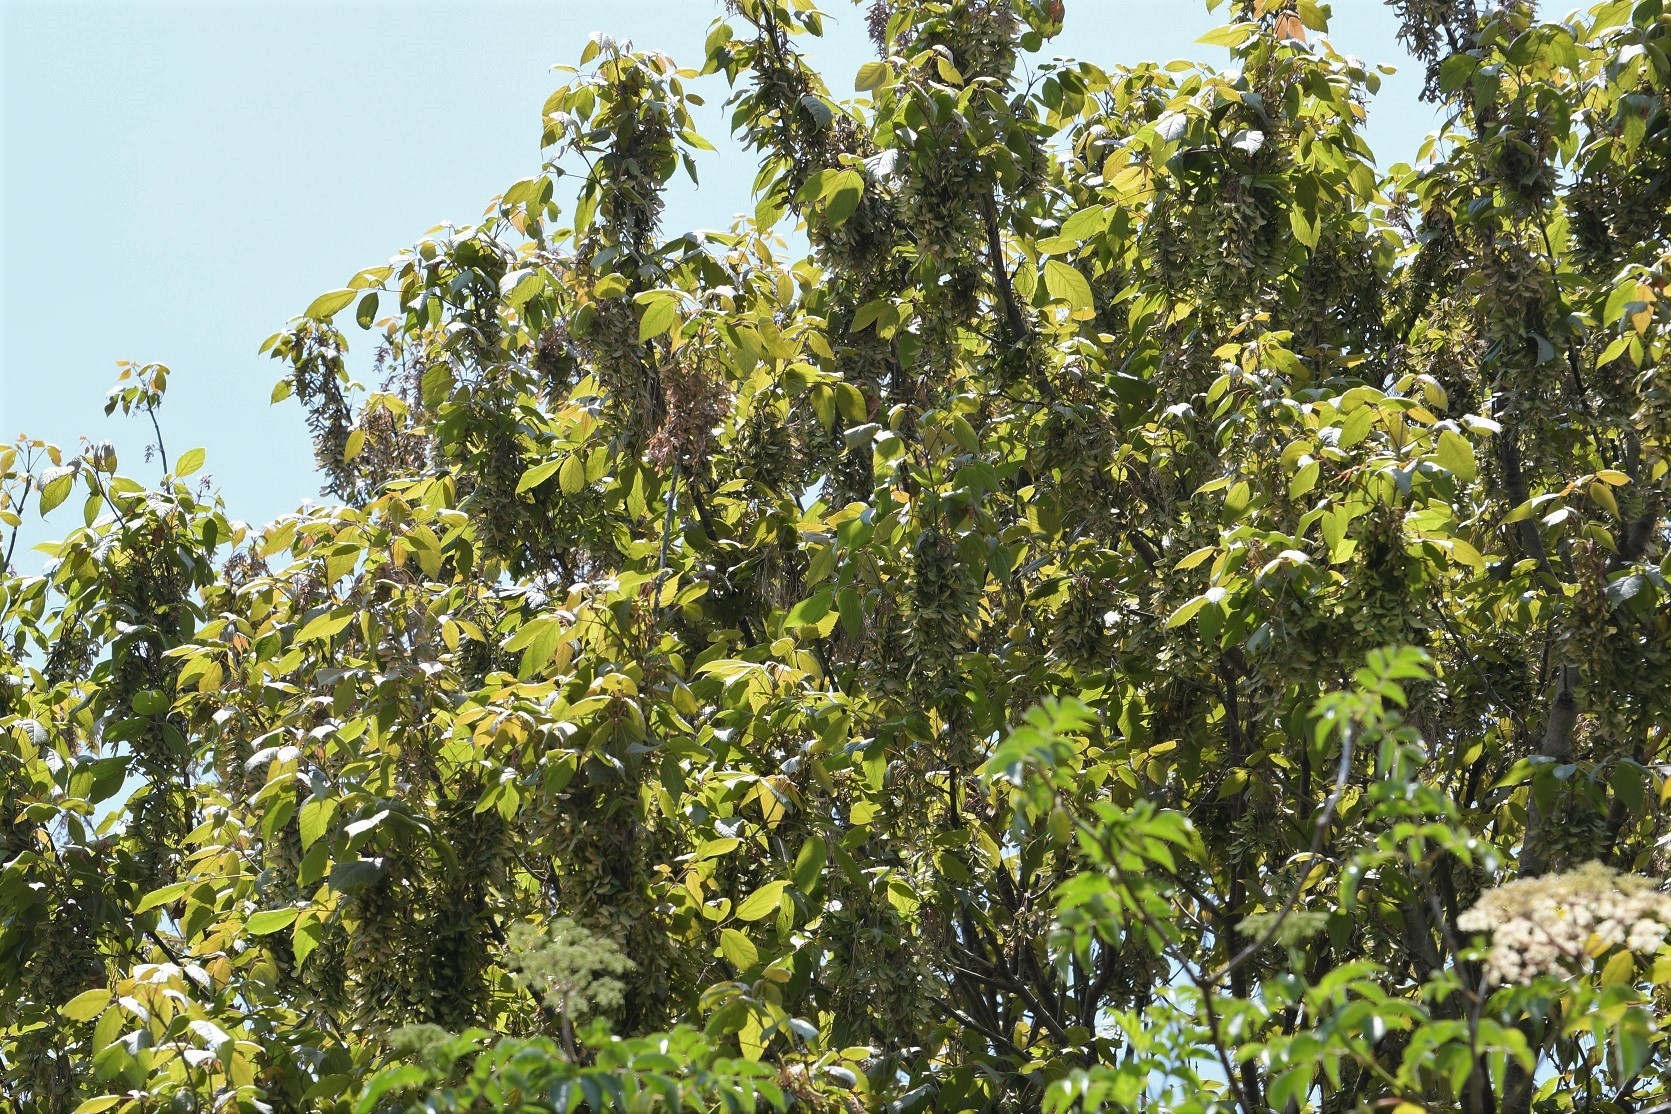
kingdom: Plantae
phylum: Tracheophyta
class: Magnoliopsida
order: Sapindales
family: Sapindaceae
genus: Acer
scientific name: Acer negundo
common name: Ashleaf maple
